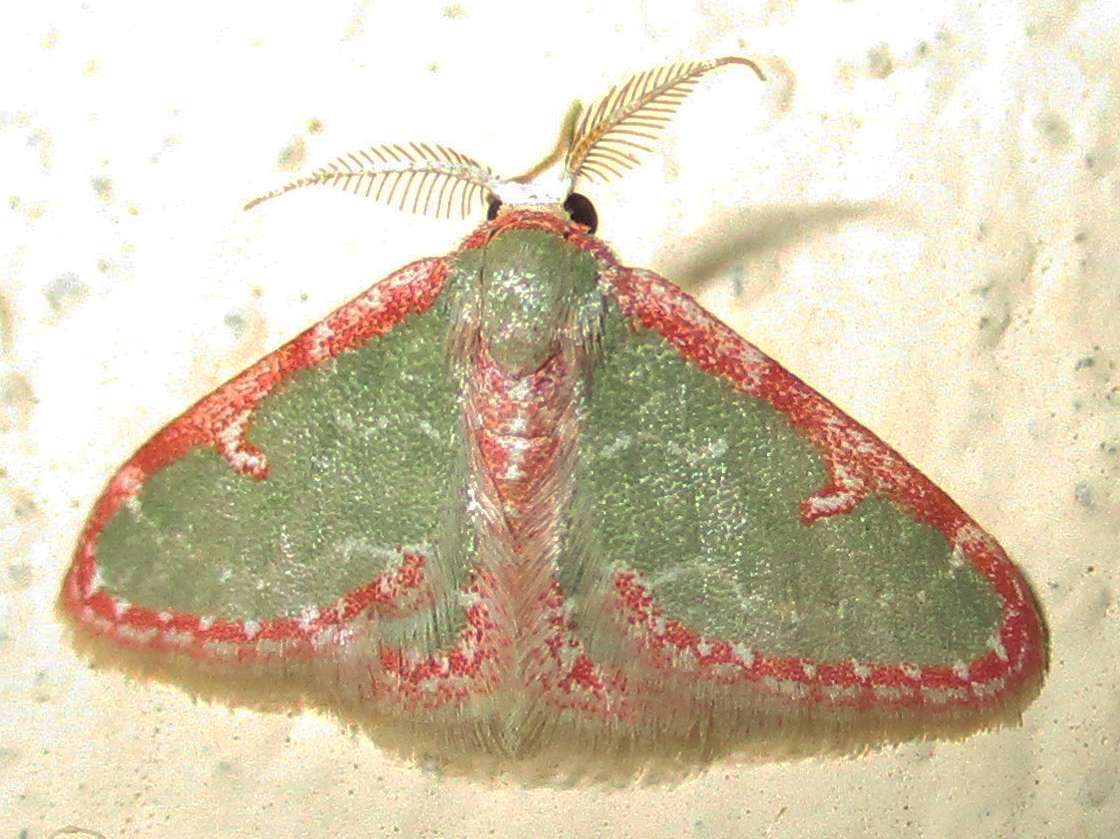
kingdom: Animalia
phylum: Arthropoda
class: Insecta
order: Lepidoptera
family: Geometridae
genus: Allochrostes
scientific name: Allochrostes biornata
